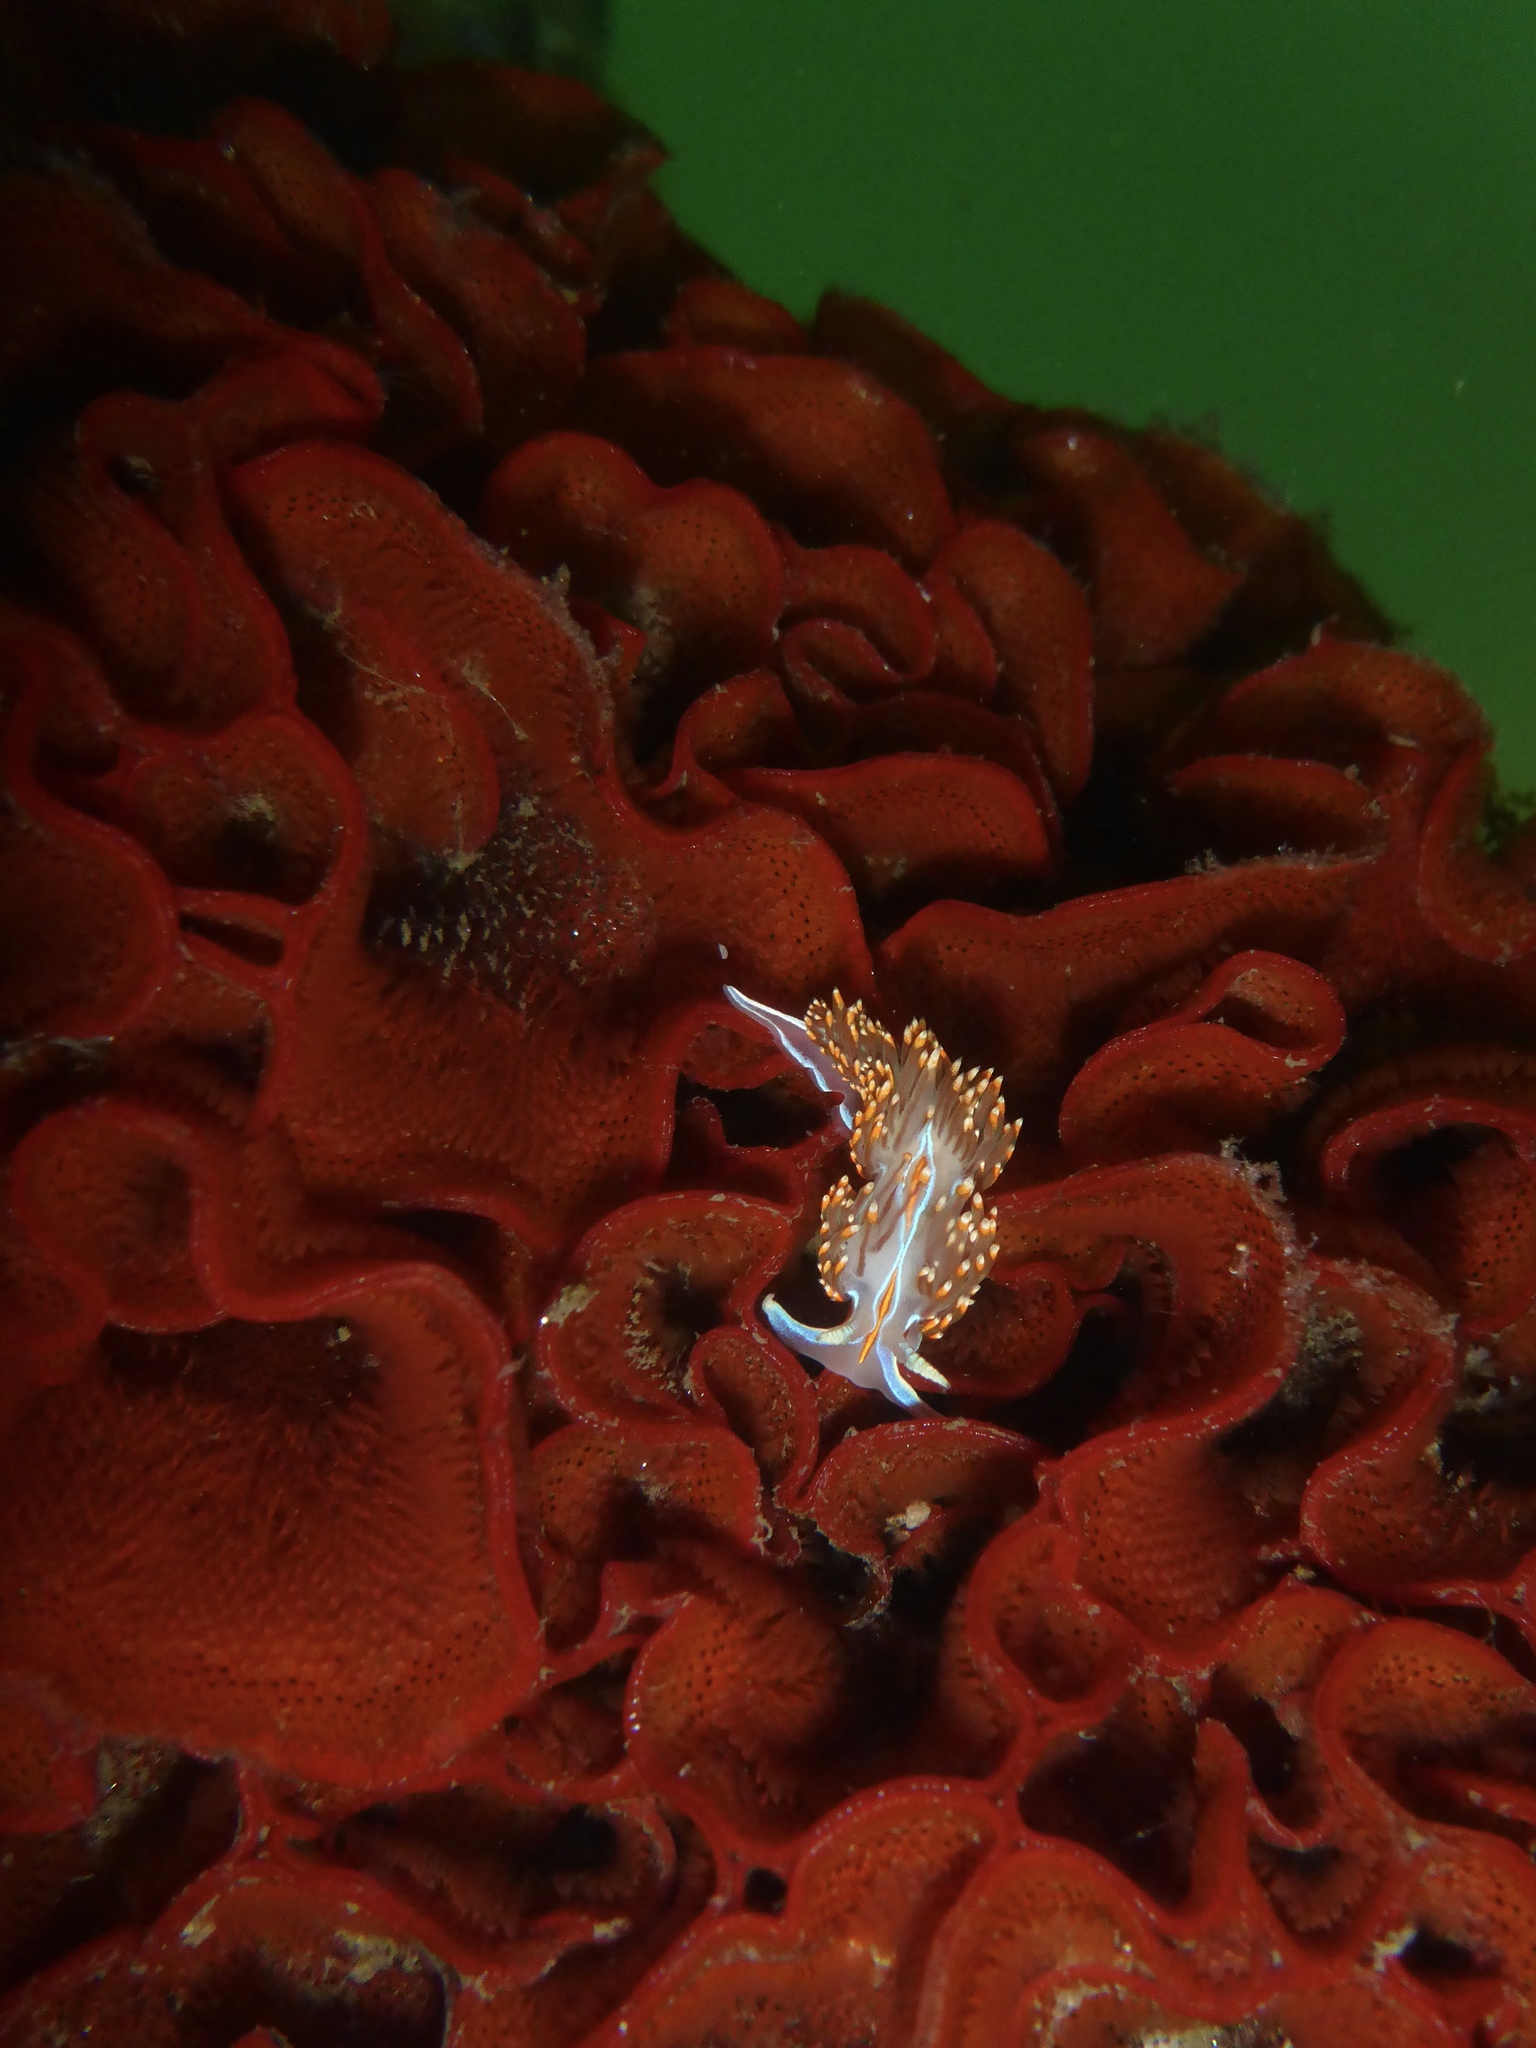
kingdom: Animalia
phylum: Mollusca
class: Gastropoda
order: Nudibranchia
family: Myrrhinidae
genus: Hermissenda
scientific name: Hermissenda opalescens
